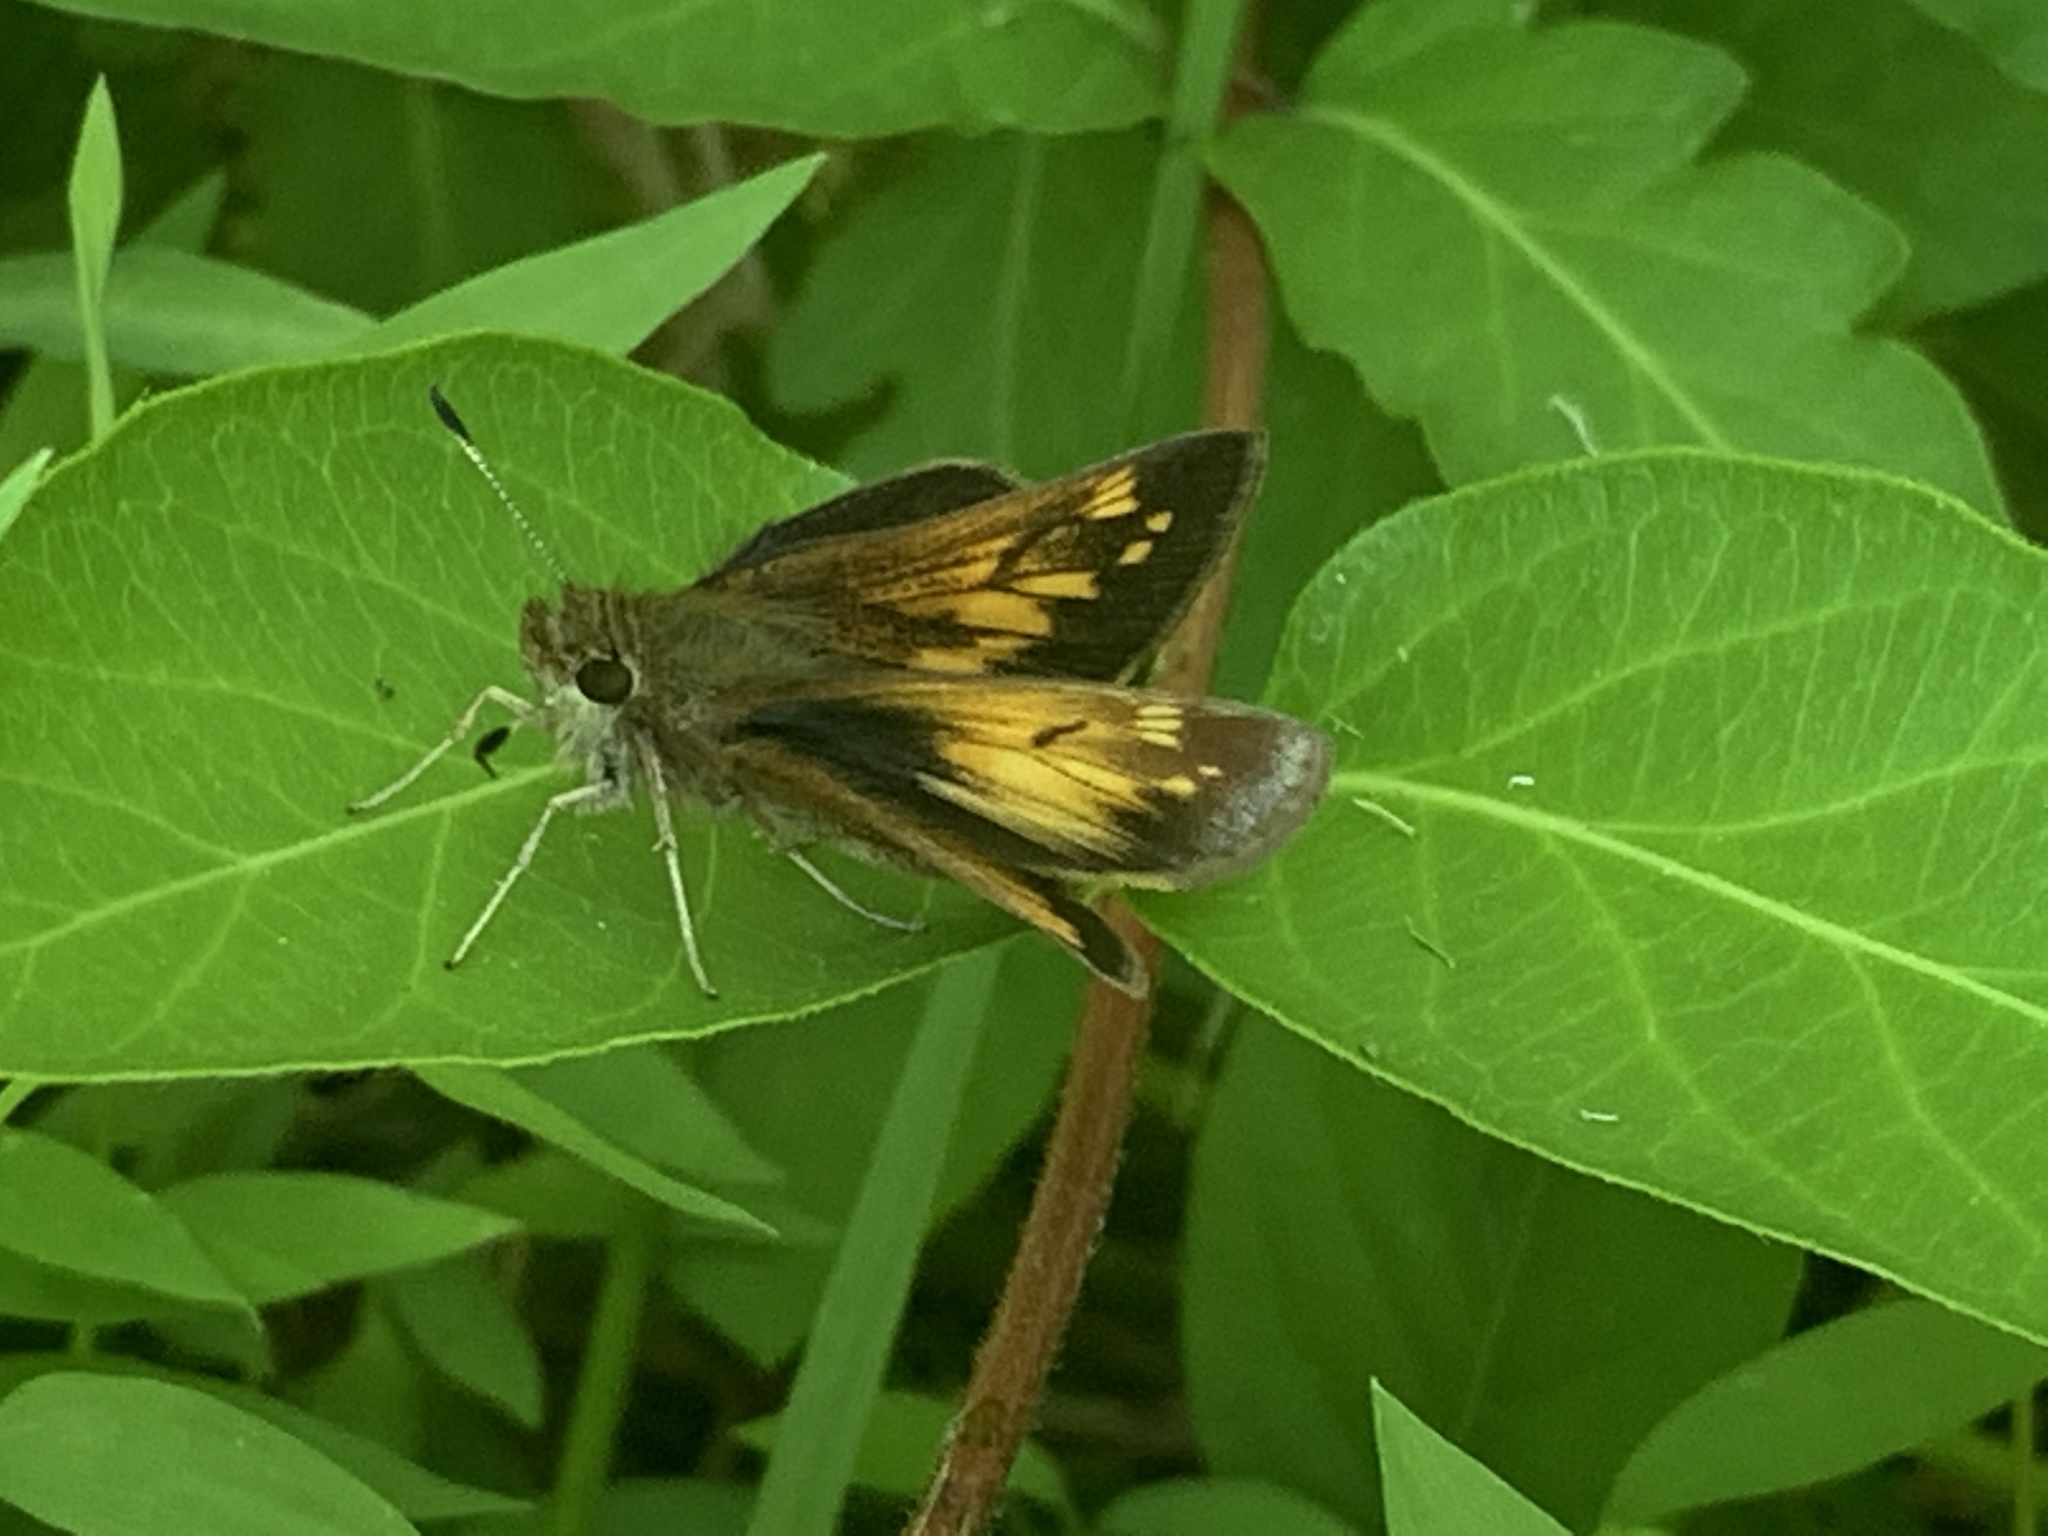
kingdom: Animalia
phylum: Arthropoda
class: Insecta
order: Lepidoptera
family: Hesperiidae
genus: Lon
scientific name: Lon hobomok
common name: Hobomok skipper
